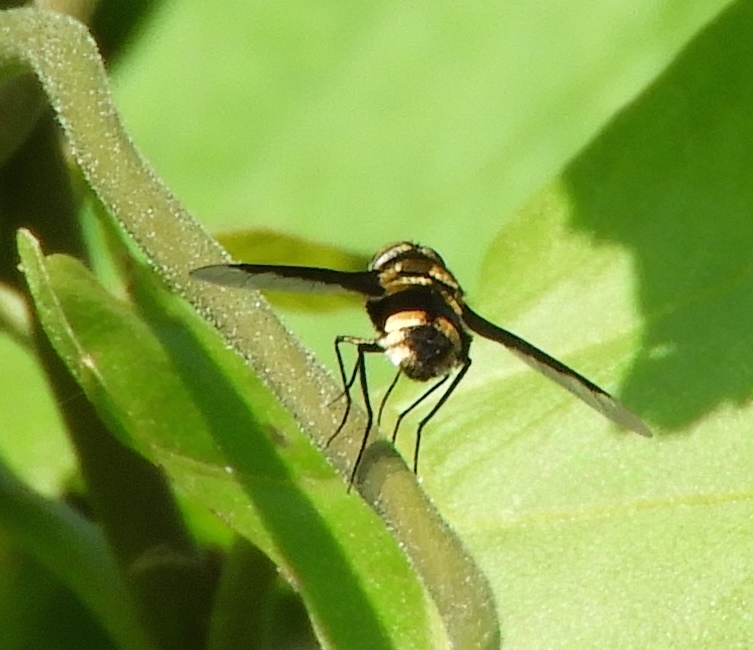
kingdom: Animalia
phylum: Arthropoda
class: Insecta
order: Diptera
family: Bombyliidae
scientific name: Bombyliidae
